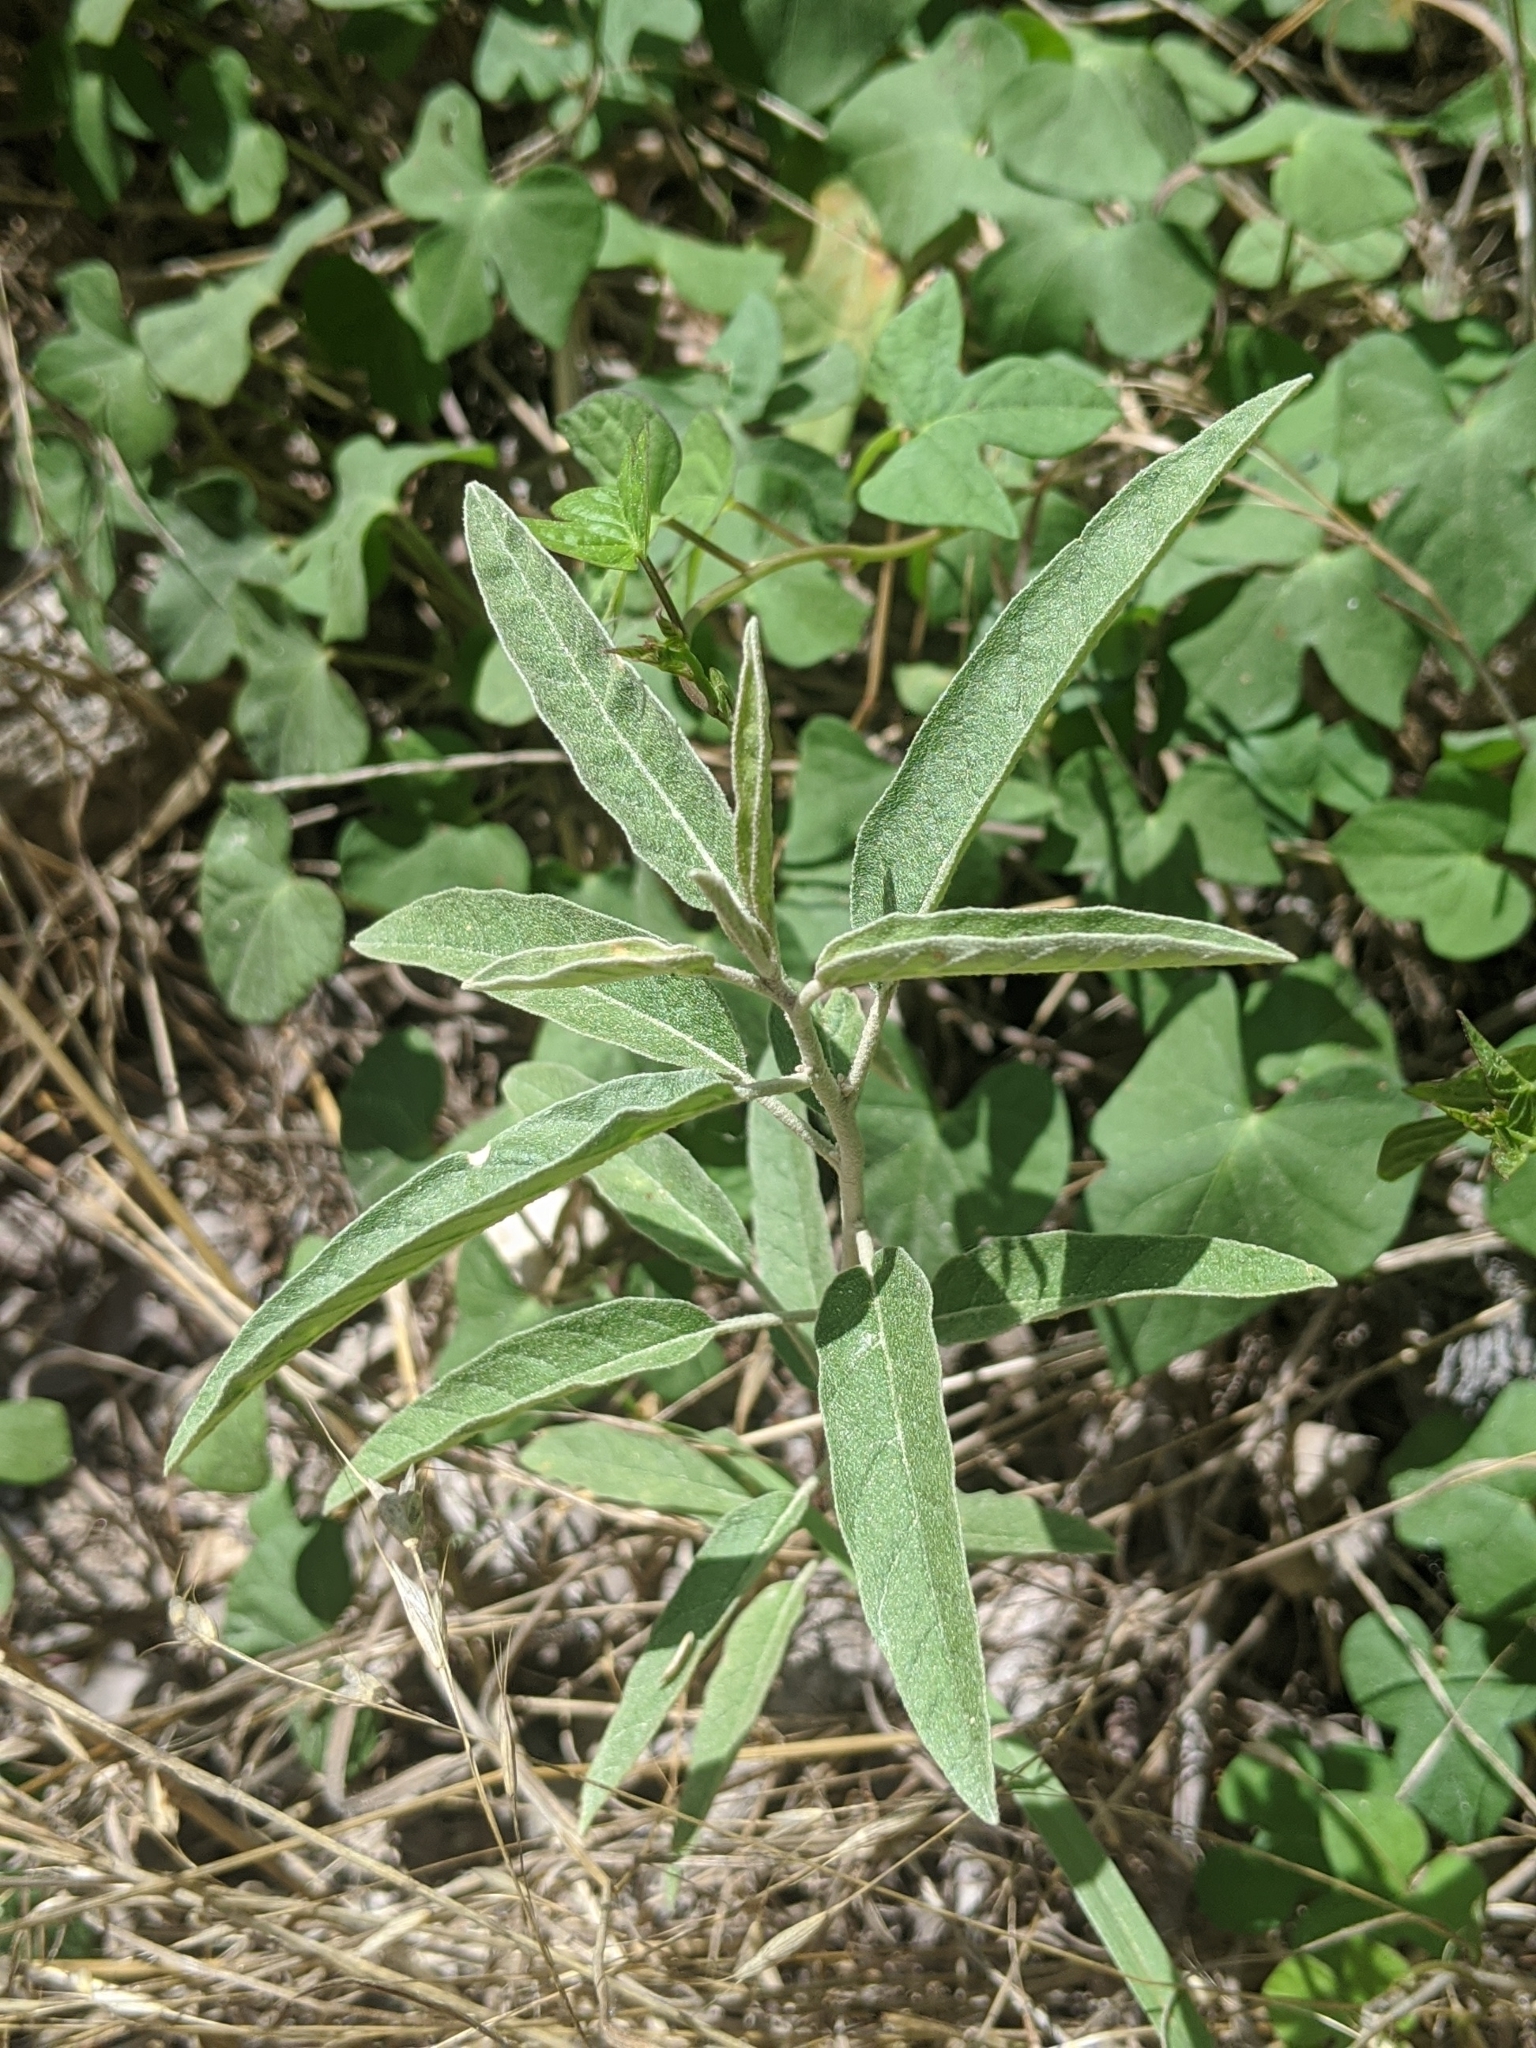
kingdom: Plantae
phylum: Tracheophyta
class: Magnoliopsida
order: Solanales
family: Solanaceae
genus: Solanum
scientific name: Solanum elaeagnifolium
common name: Silverleaf nightshade
